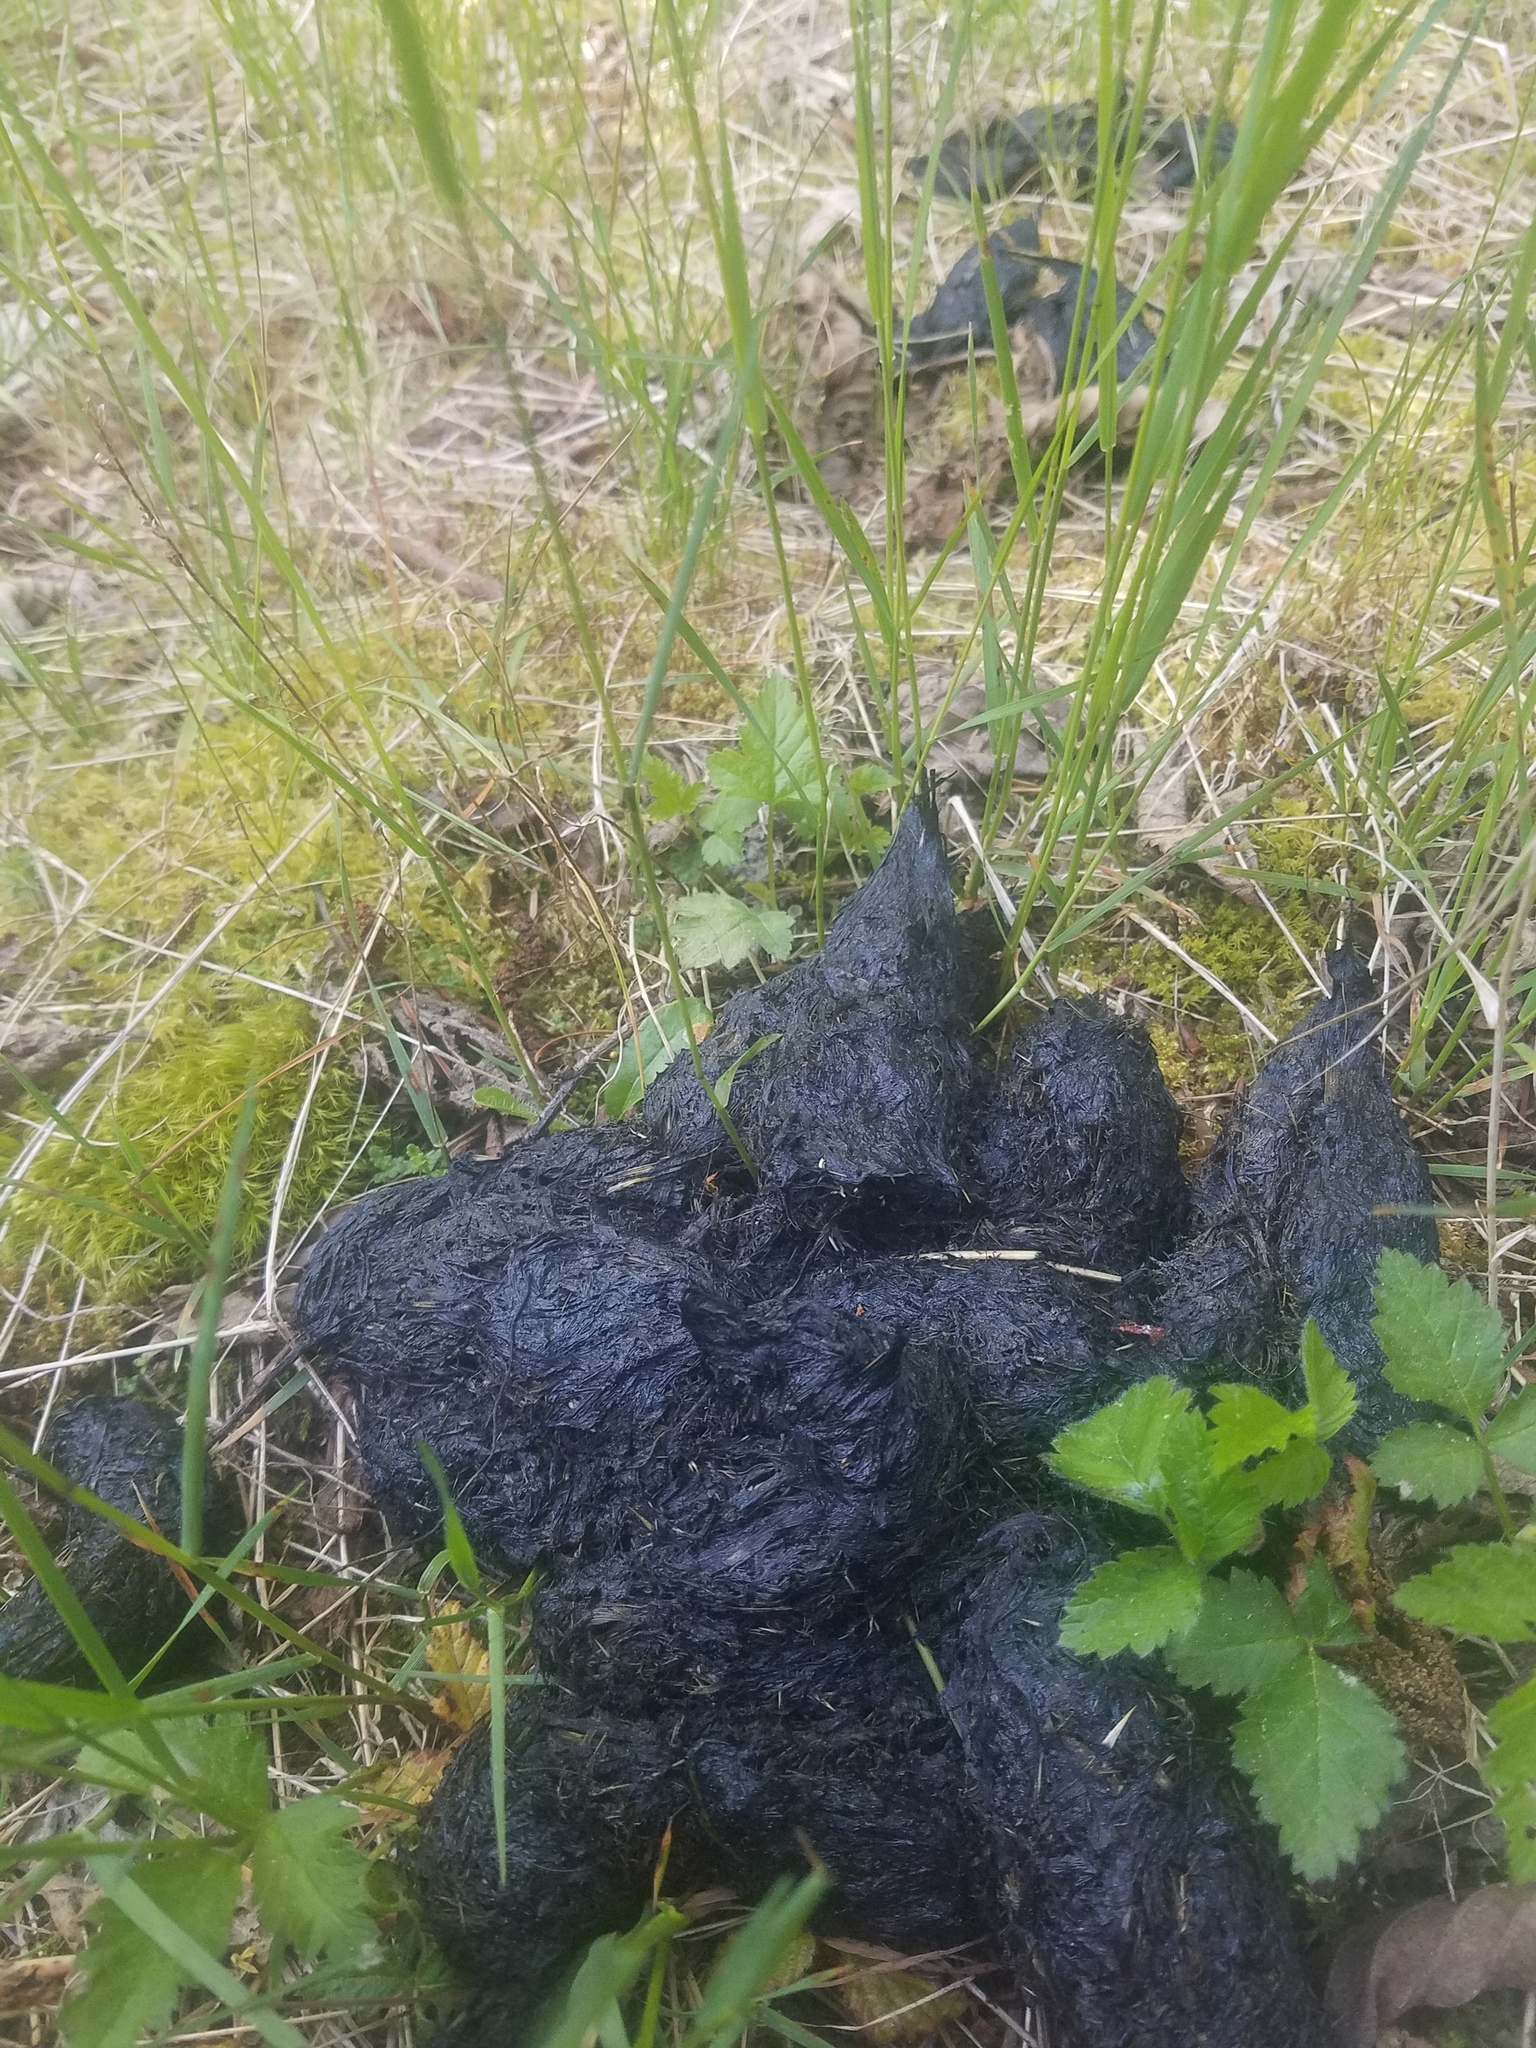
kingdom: Animalia
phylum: Chordata
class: Mammalia
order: Carnivora
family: Ursidae
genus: Ursus
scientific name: Ursus americanus
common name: American black bear
